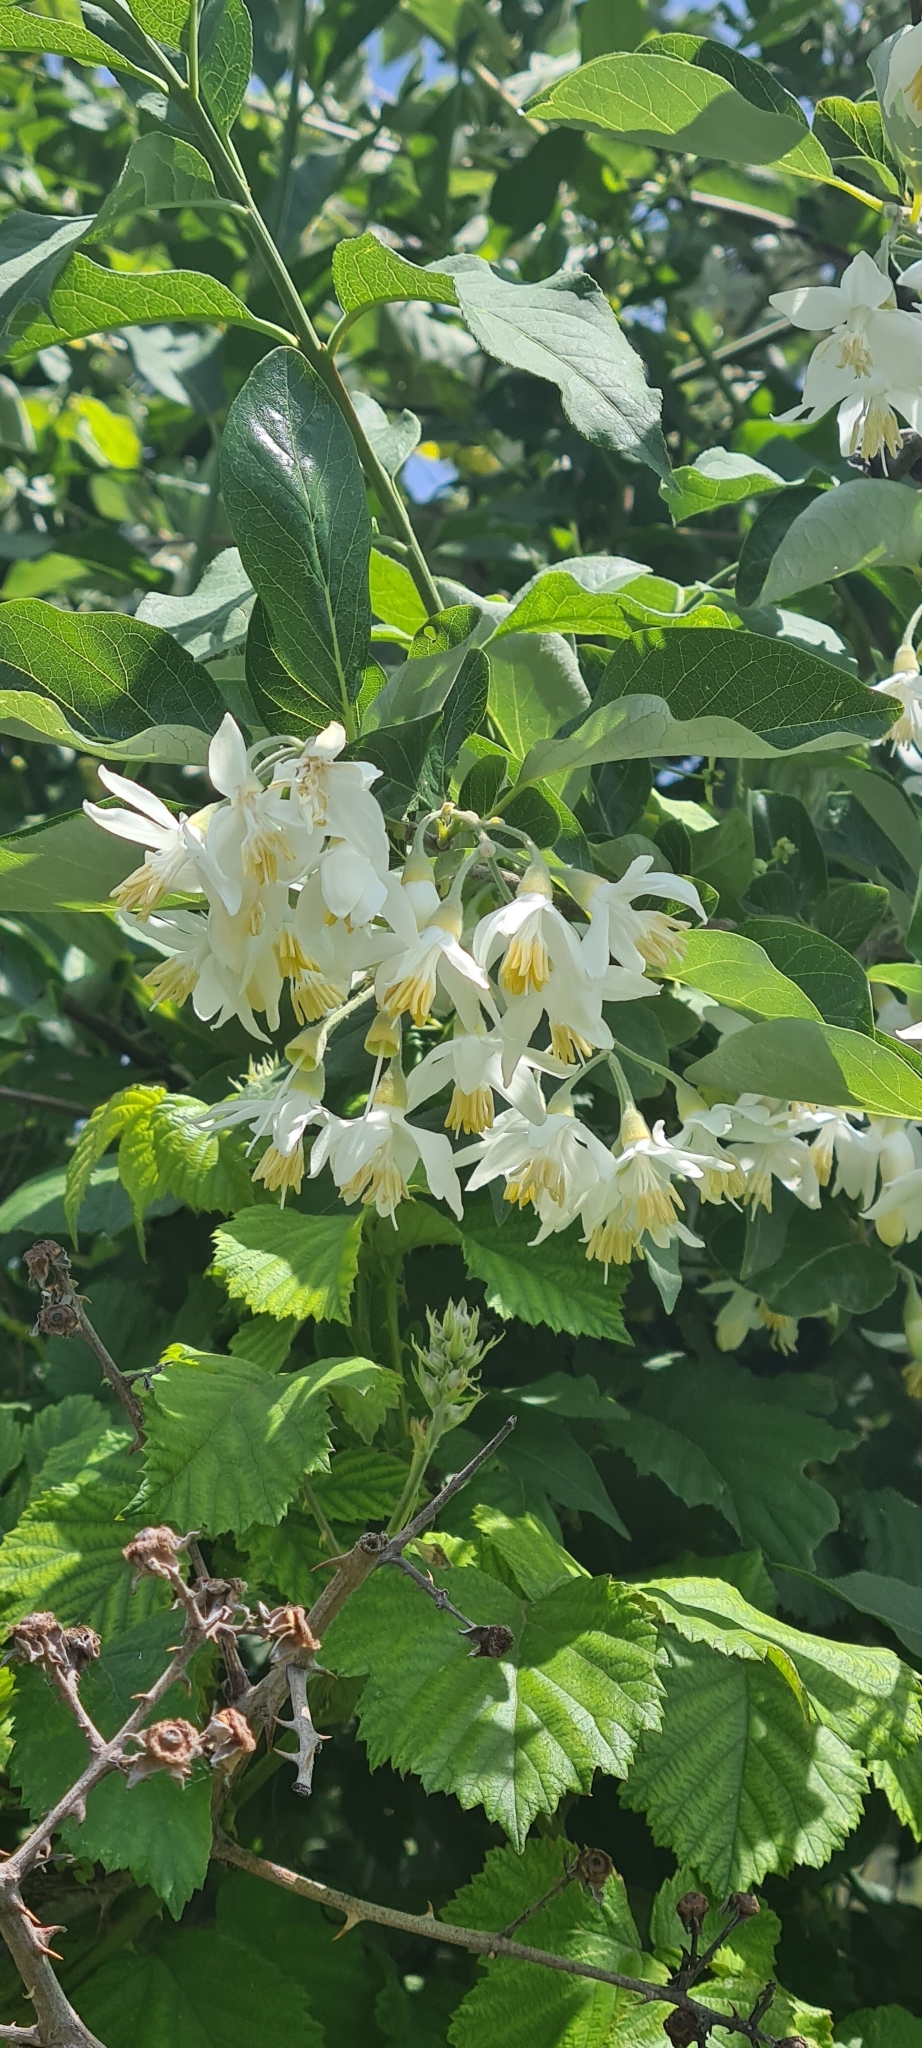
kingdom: Plantae
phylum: Tracheophyta
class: Magnoliopsida
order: Ericales
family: Styracaceae
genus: Styrax
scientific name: Styrax officinalis
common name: Storax
